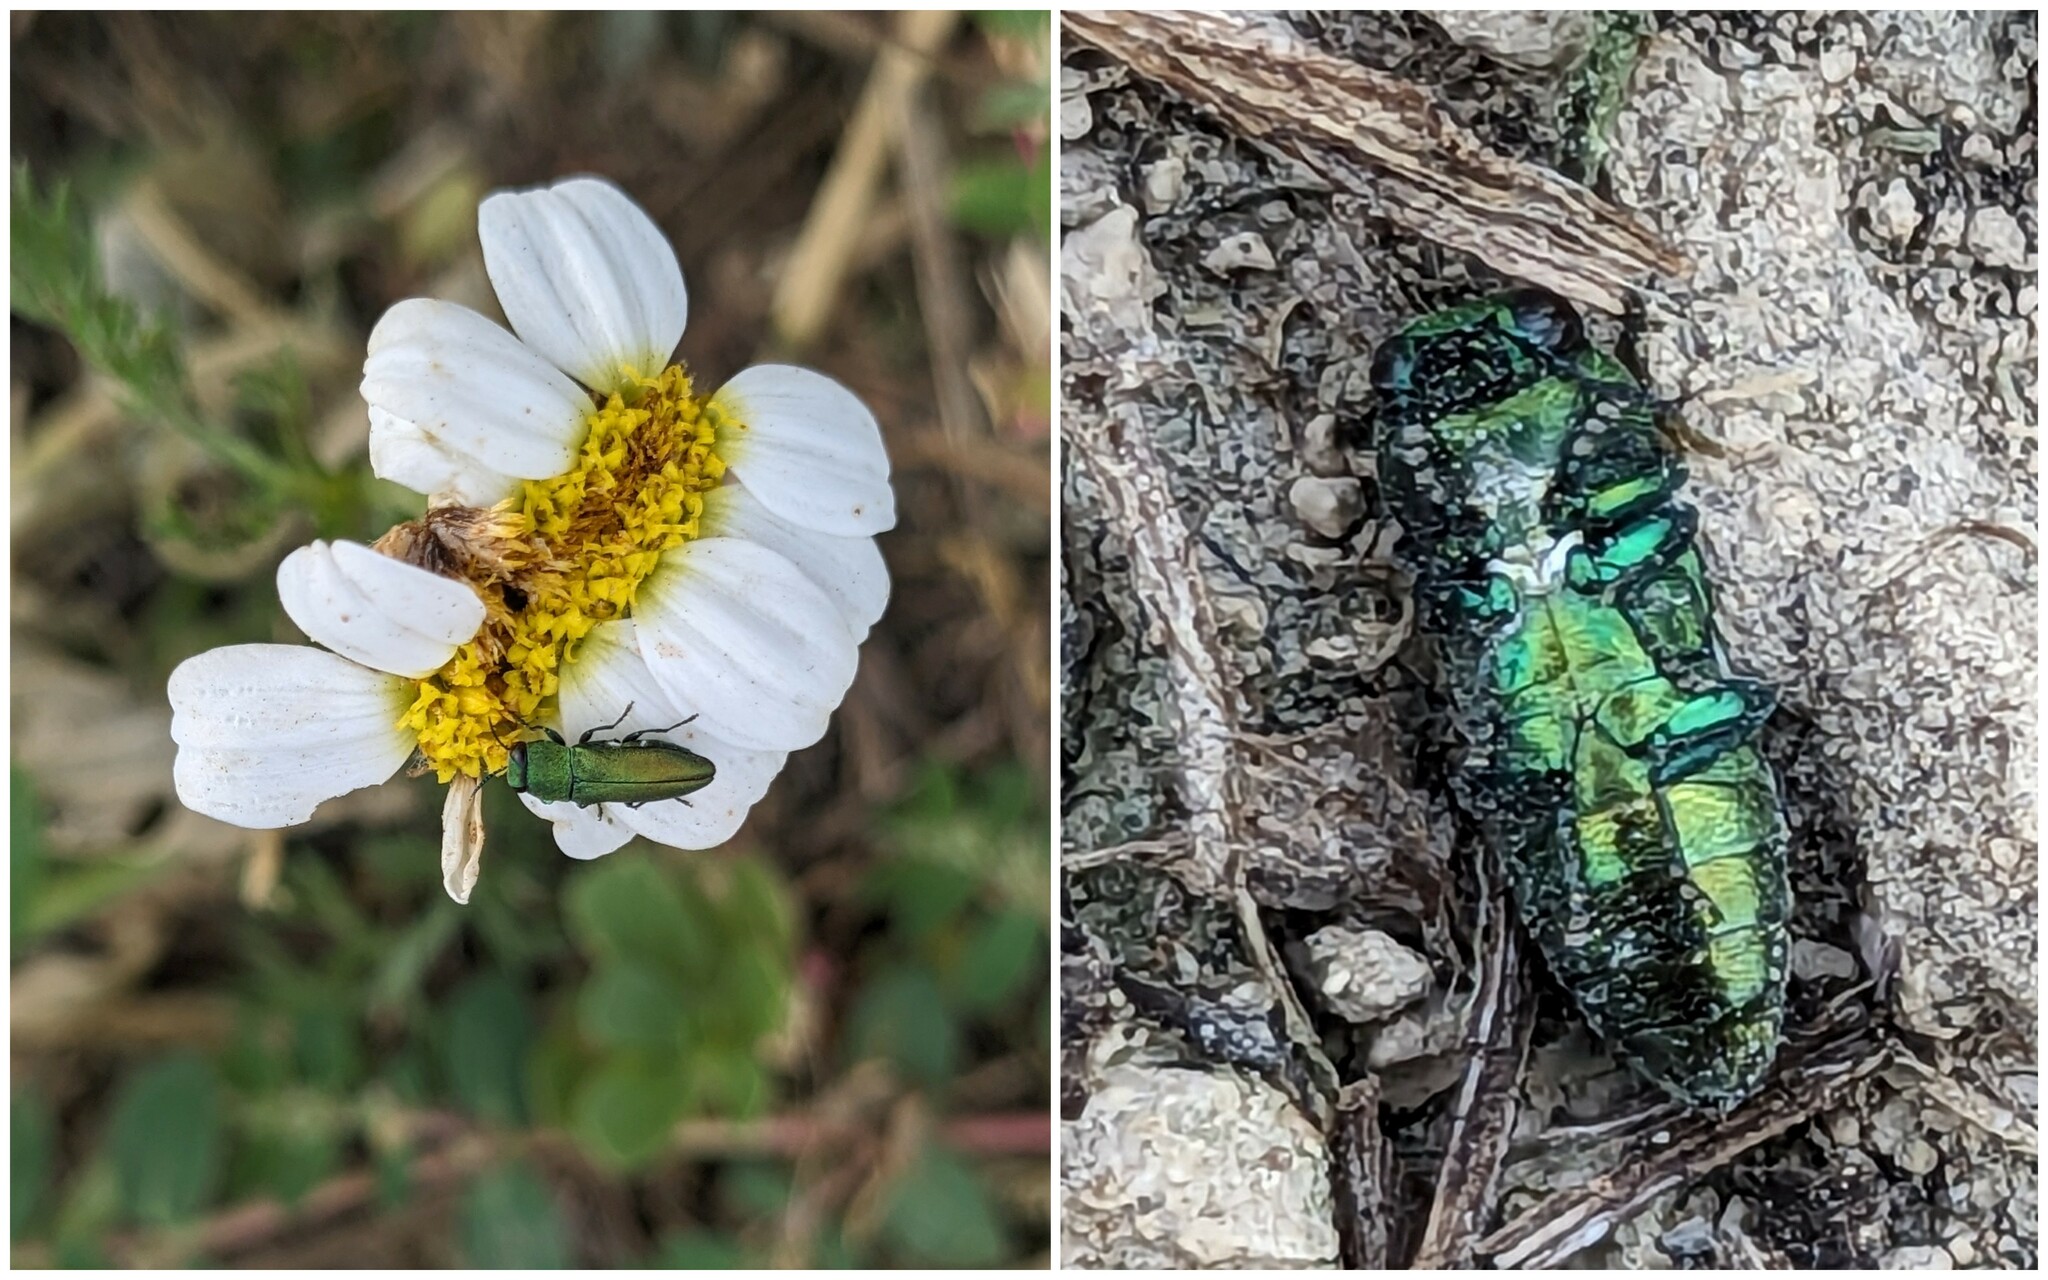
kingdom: Animalia
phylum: Arthropoda
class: Insecta
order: Coleoptera
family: Buprestidae
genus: Anthaxia
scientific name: Anthaxia millefolii
